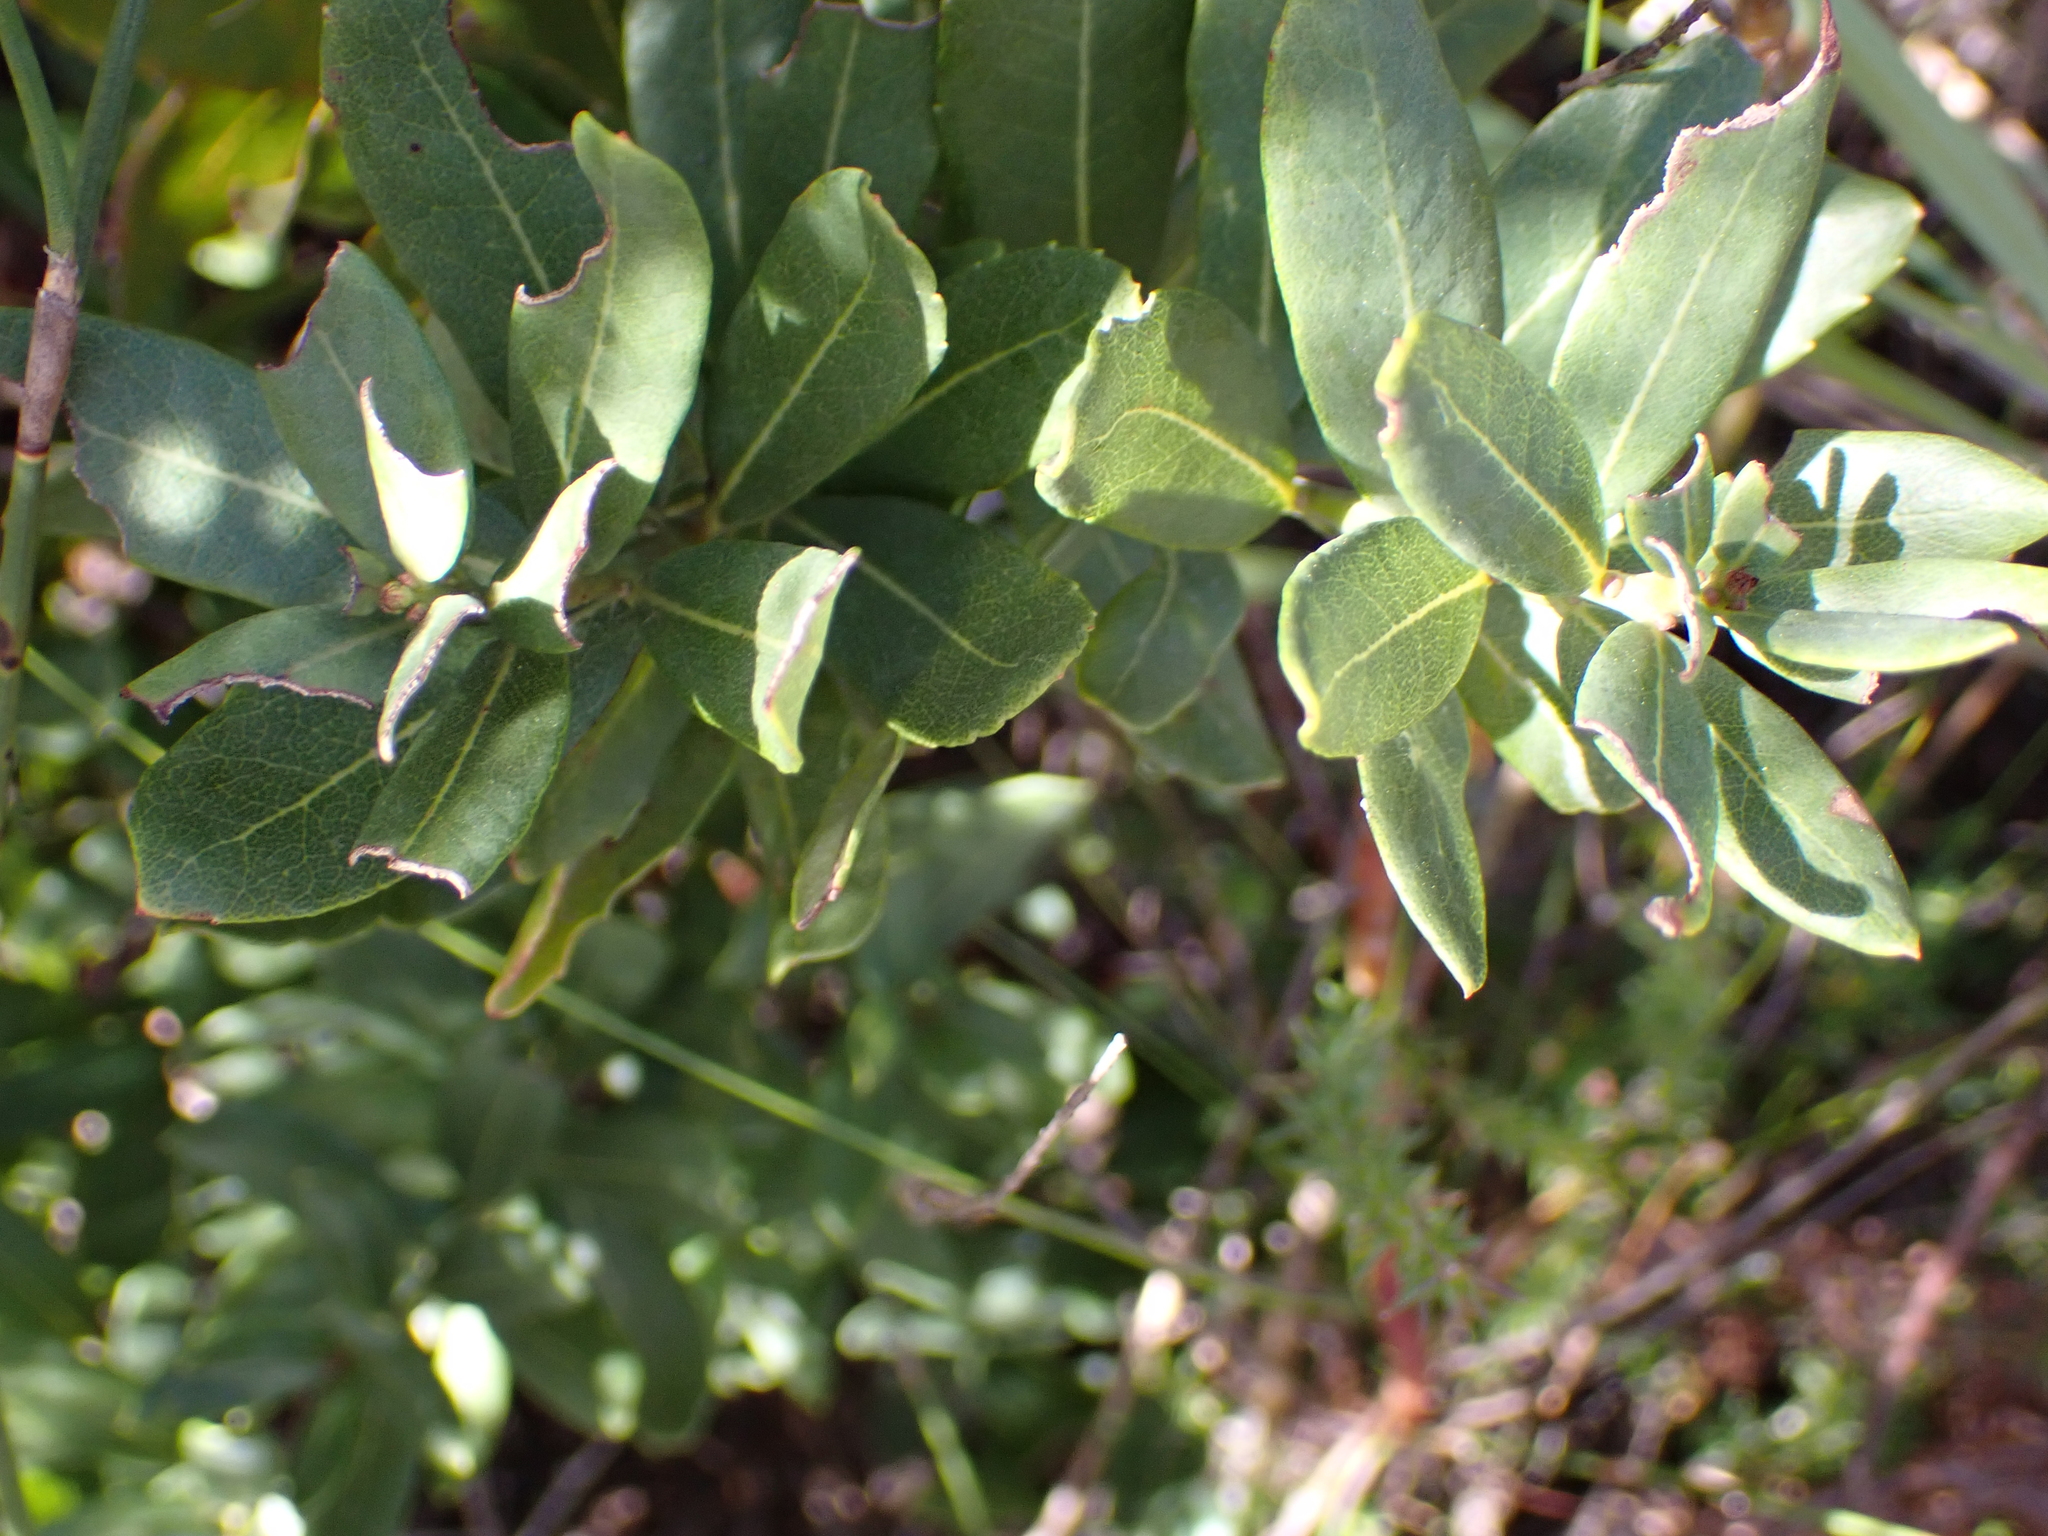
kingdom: Plantae
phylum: Tracheophyta
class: Magnoliopsida
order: Fagales
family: Myricaceae
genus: Morella
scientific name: Morella humilis
